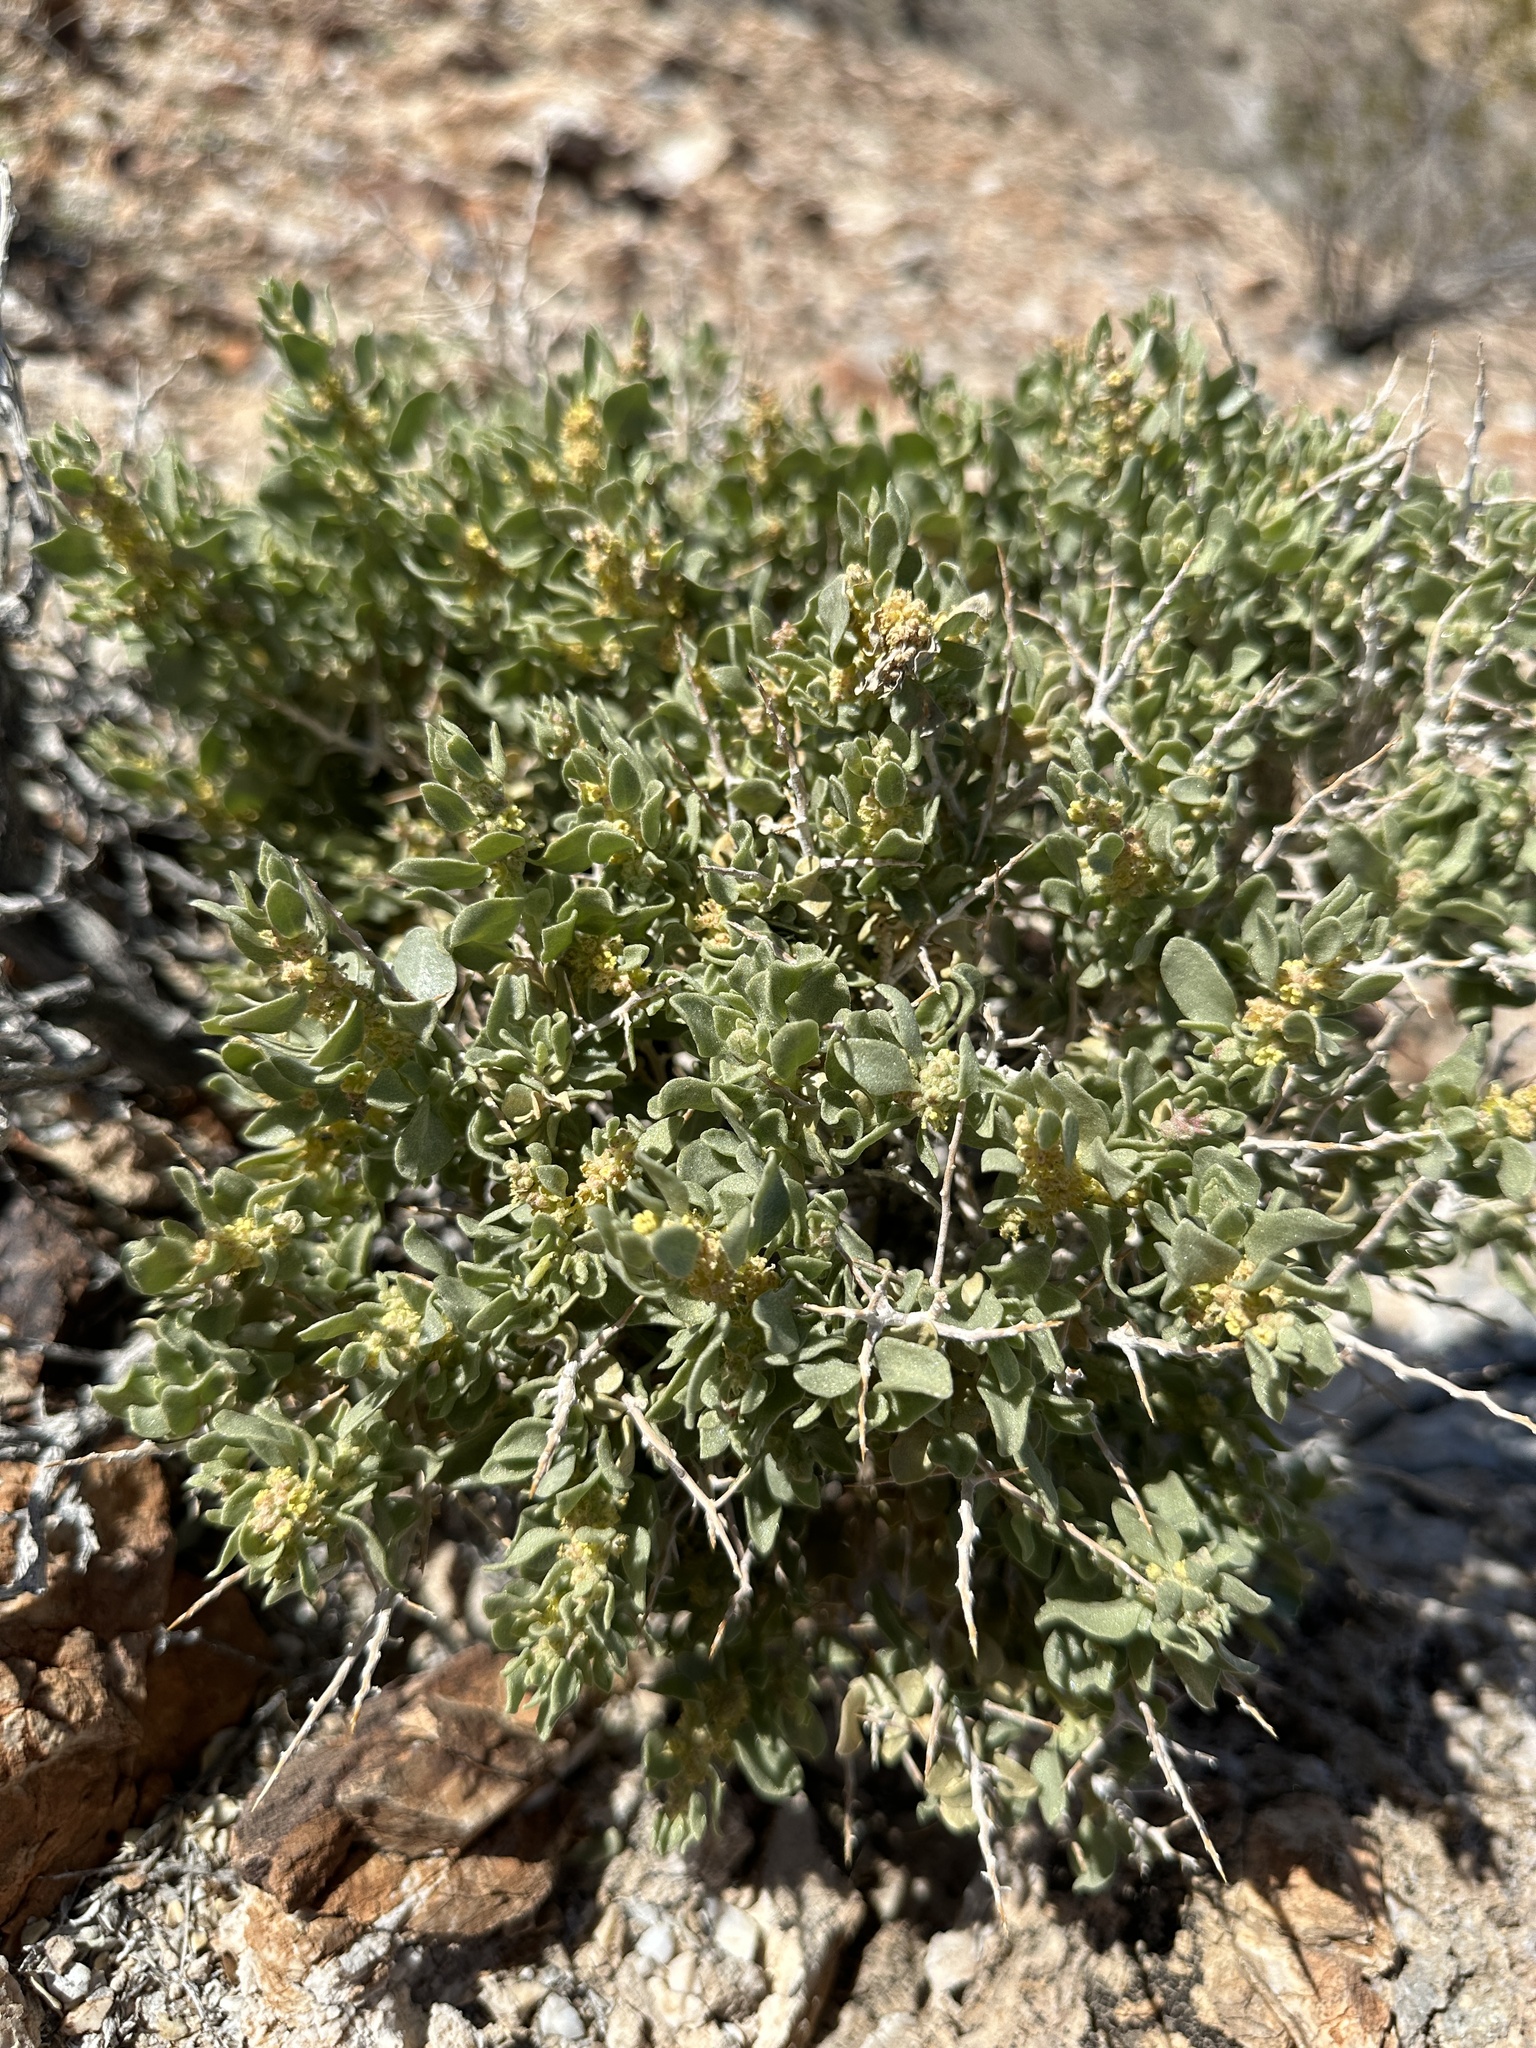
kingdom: Plantae
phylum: Tracheophyta
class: Magnoliopsida
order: Caryophyllales
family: Amaranthaceae
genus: Atriplex
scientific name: Atriplex confertifolia
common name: Shadscale
